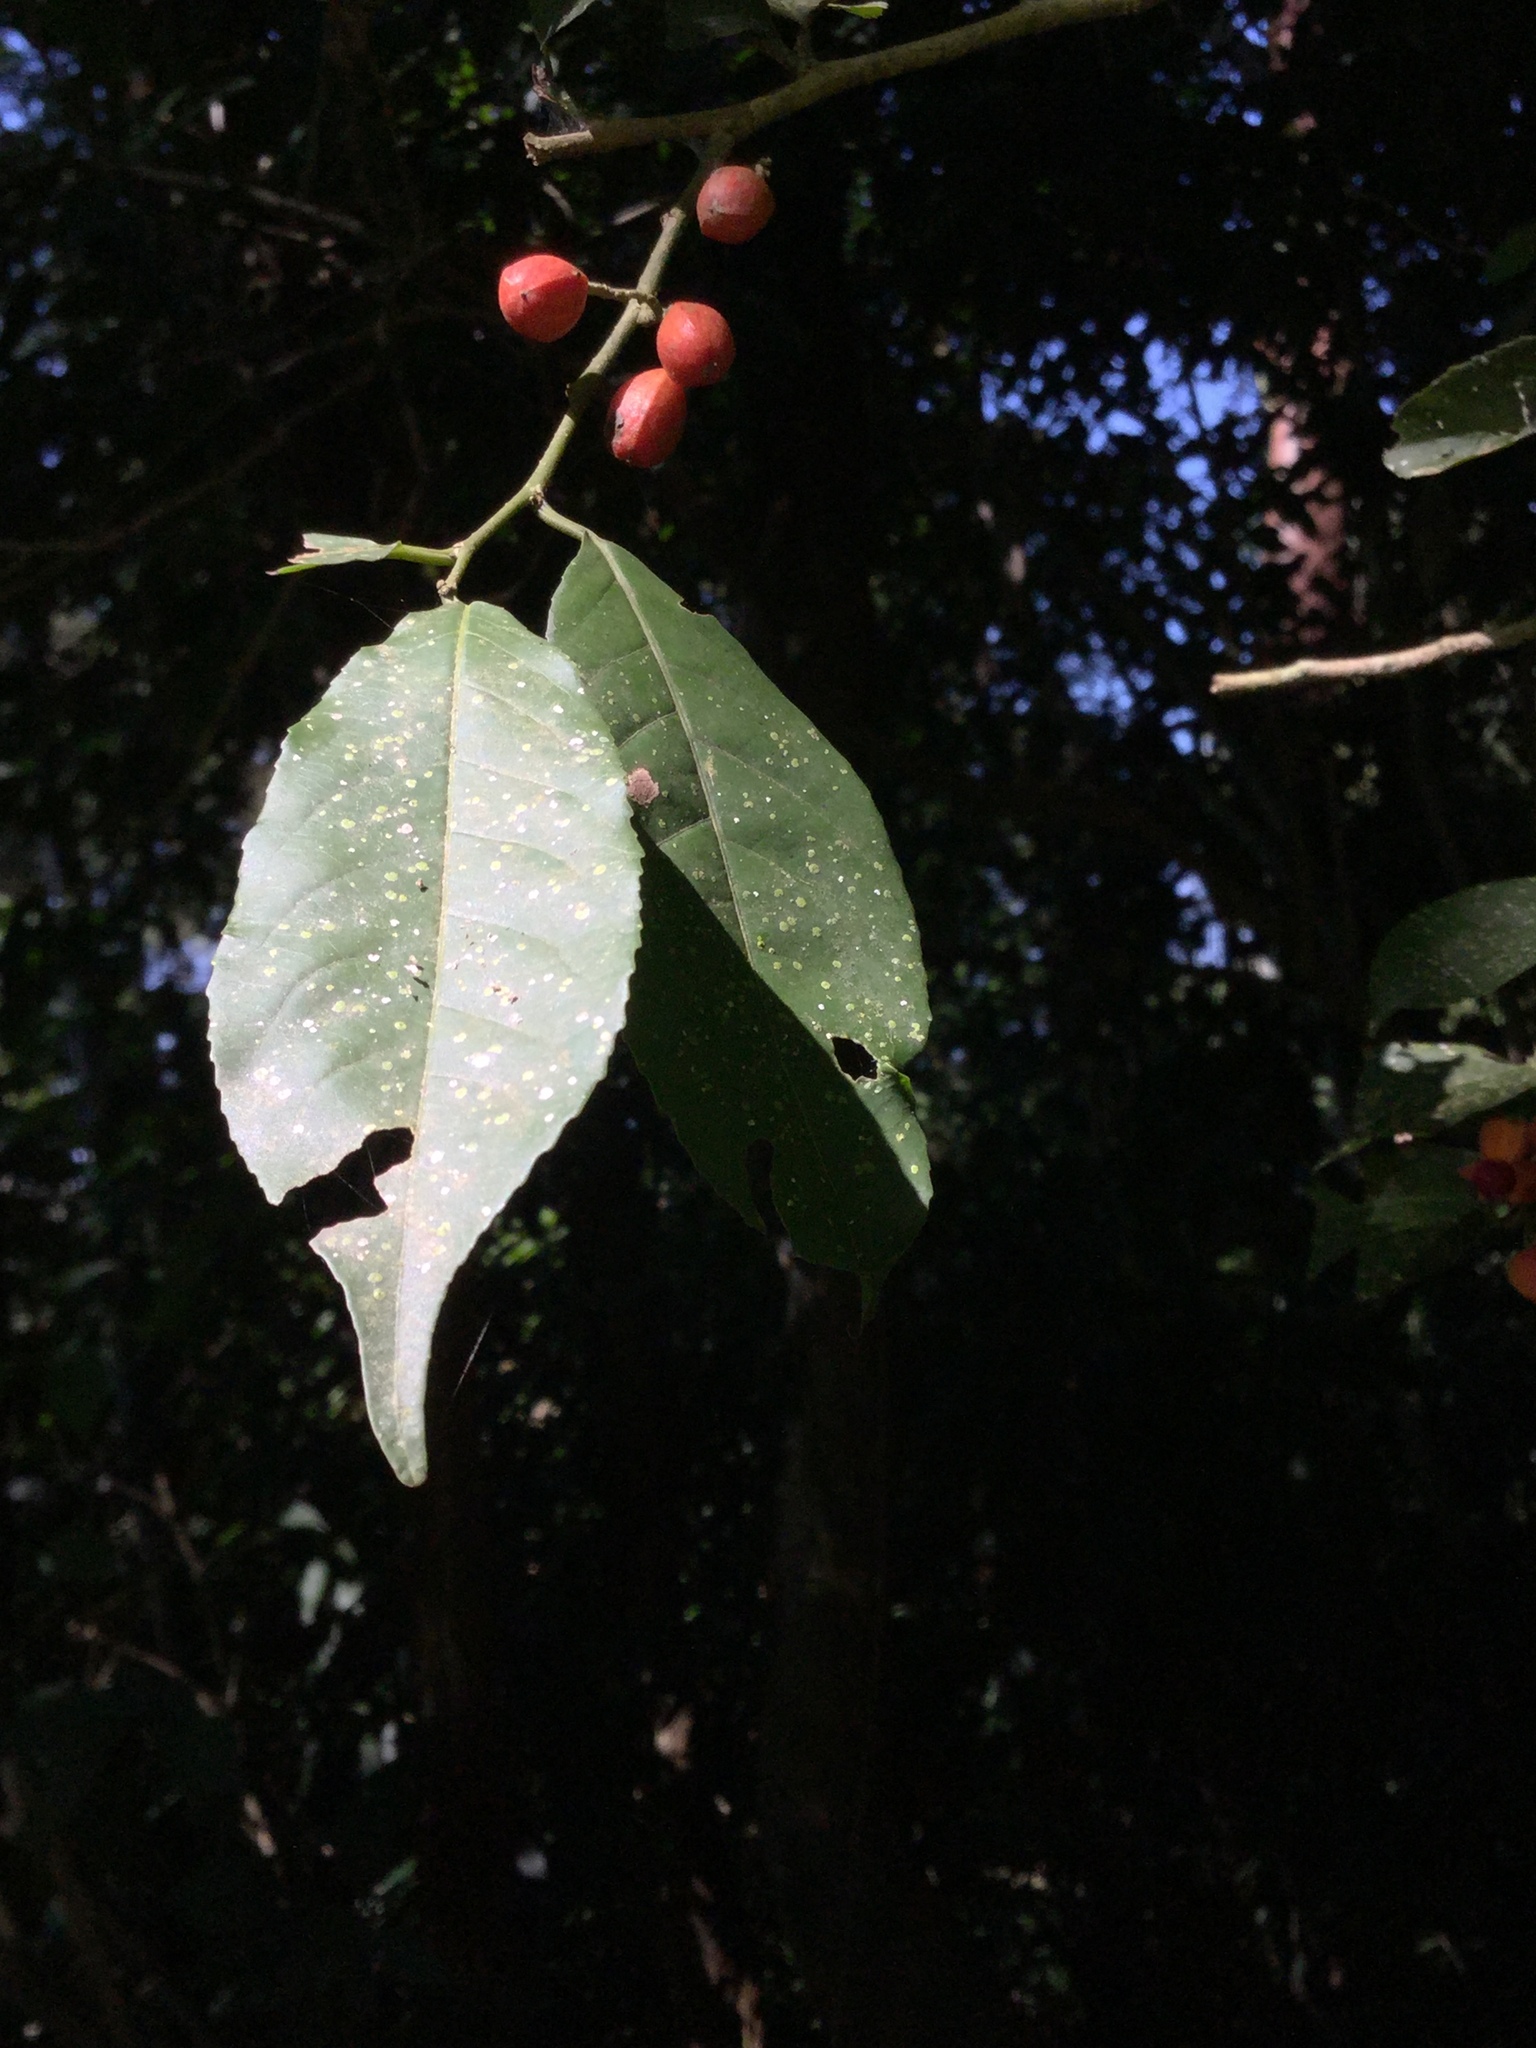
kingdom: Plantae
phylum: Tracheophyta
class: Magnoliopsida
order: Malpighiales
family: Salicaceae
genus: Casearia
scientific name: Casearia arguta
